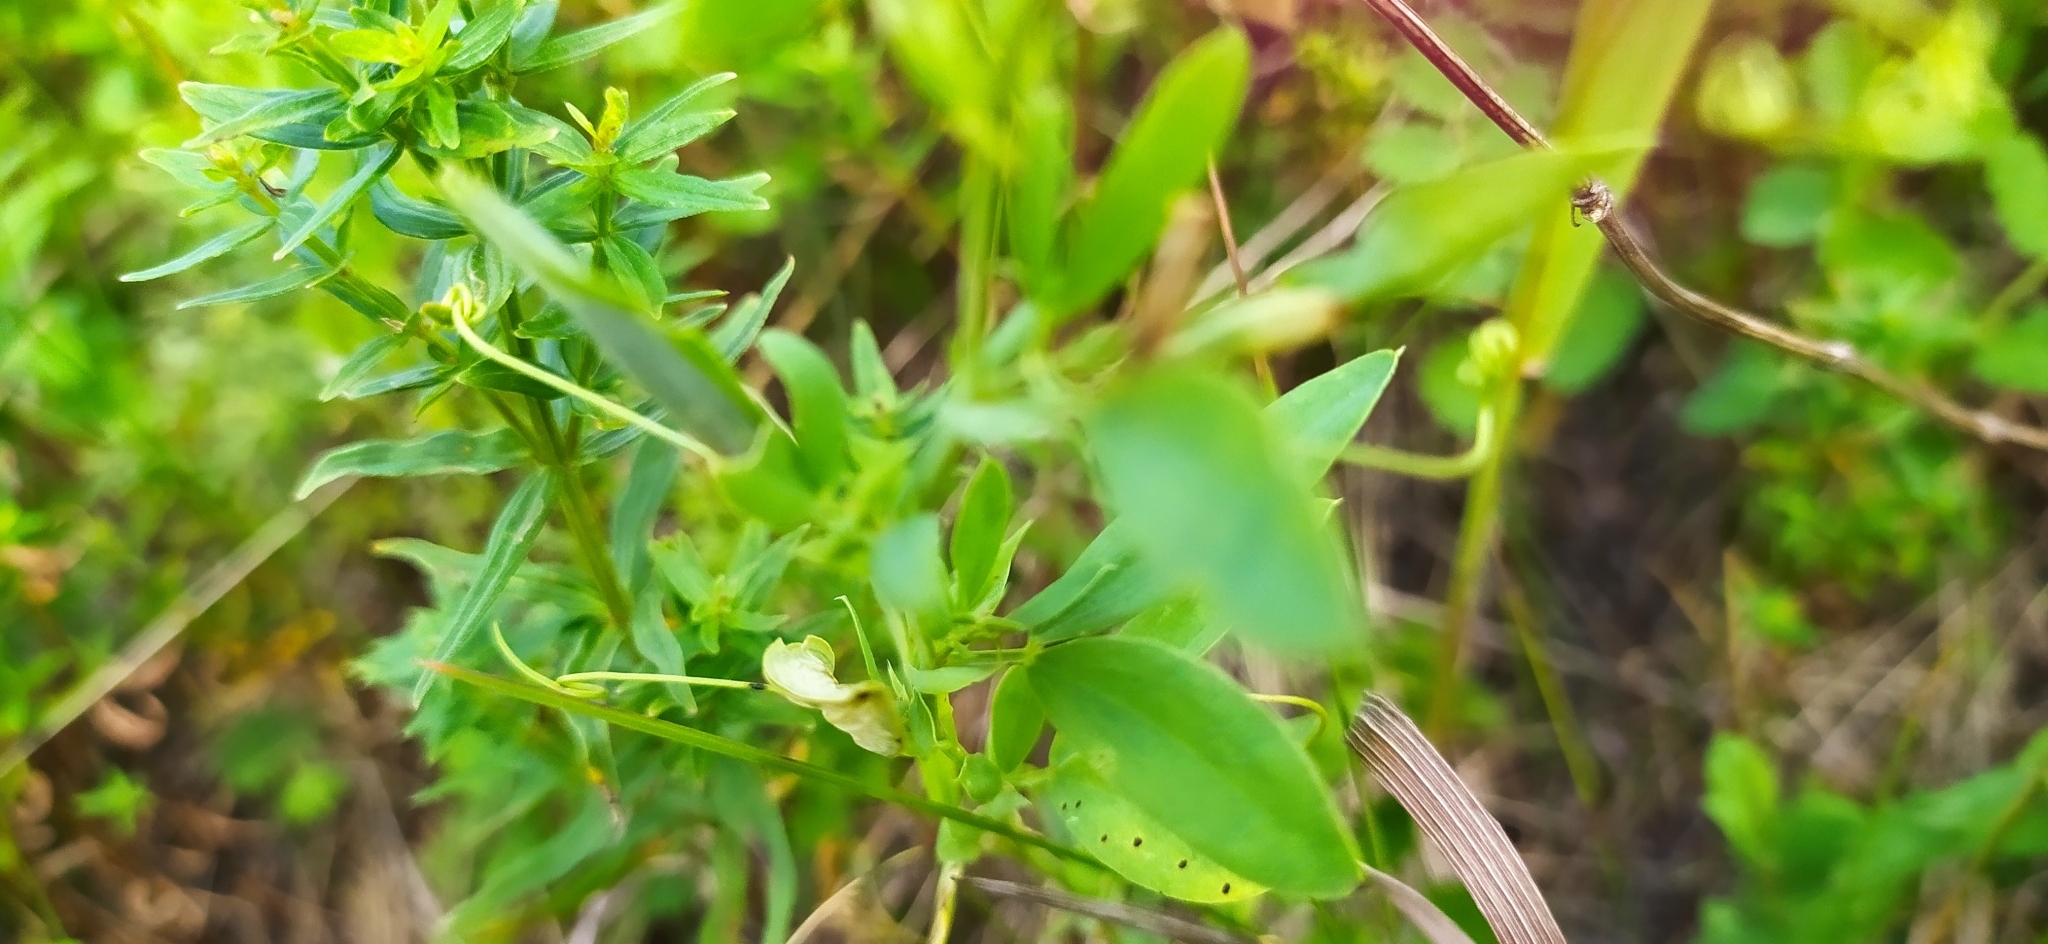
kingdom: Plantae
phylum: Tracheophyta
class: Magnoliopsida
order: Fabales
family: Fabaceae
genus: Lathyrus
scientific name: Lathyrus tuberosus
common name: Tuberous pea
